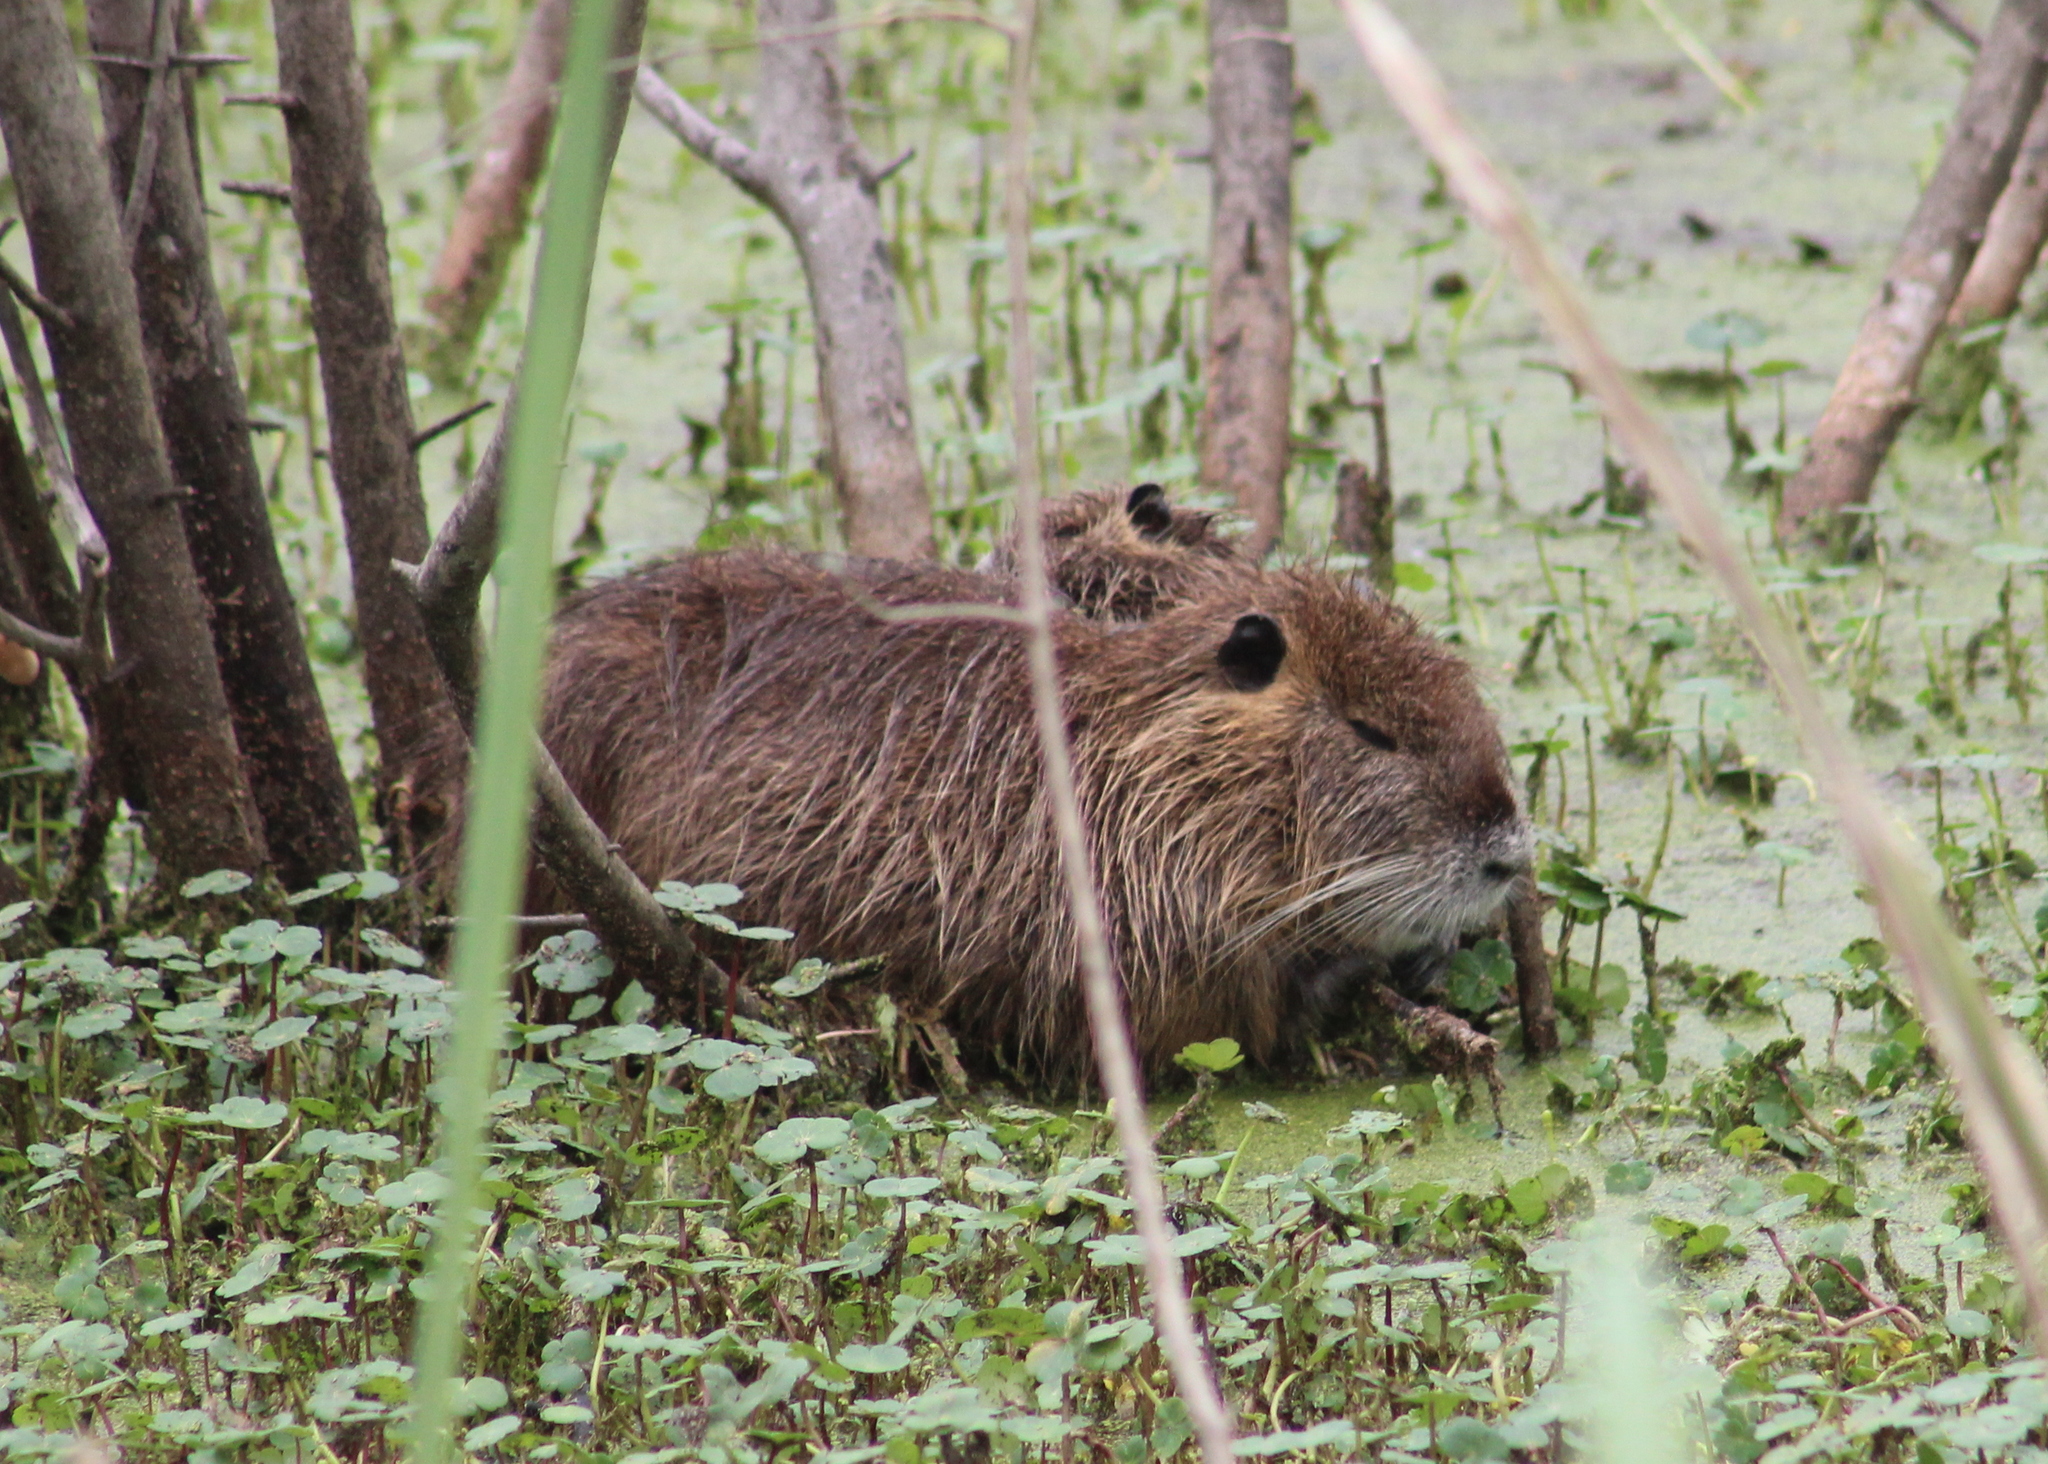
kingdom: Animalia
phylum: Chordata
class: Mammalia
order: Rodentia
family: Myocastoridae
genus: Myocastor
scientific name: Myocastor coypus
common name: Coypu
